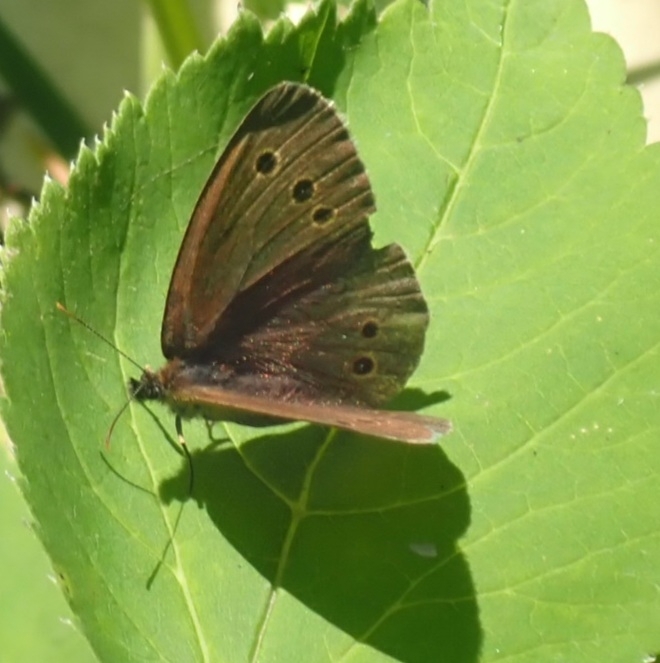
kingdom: Animalia
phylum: Arthropoda
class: Insecta
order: Lepidoptera
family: Nymphalidae
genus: Aphantopus
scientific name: Aphantopus hyperantus
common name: Ringlet
